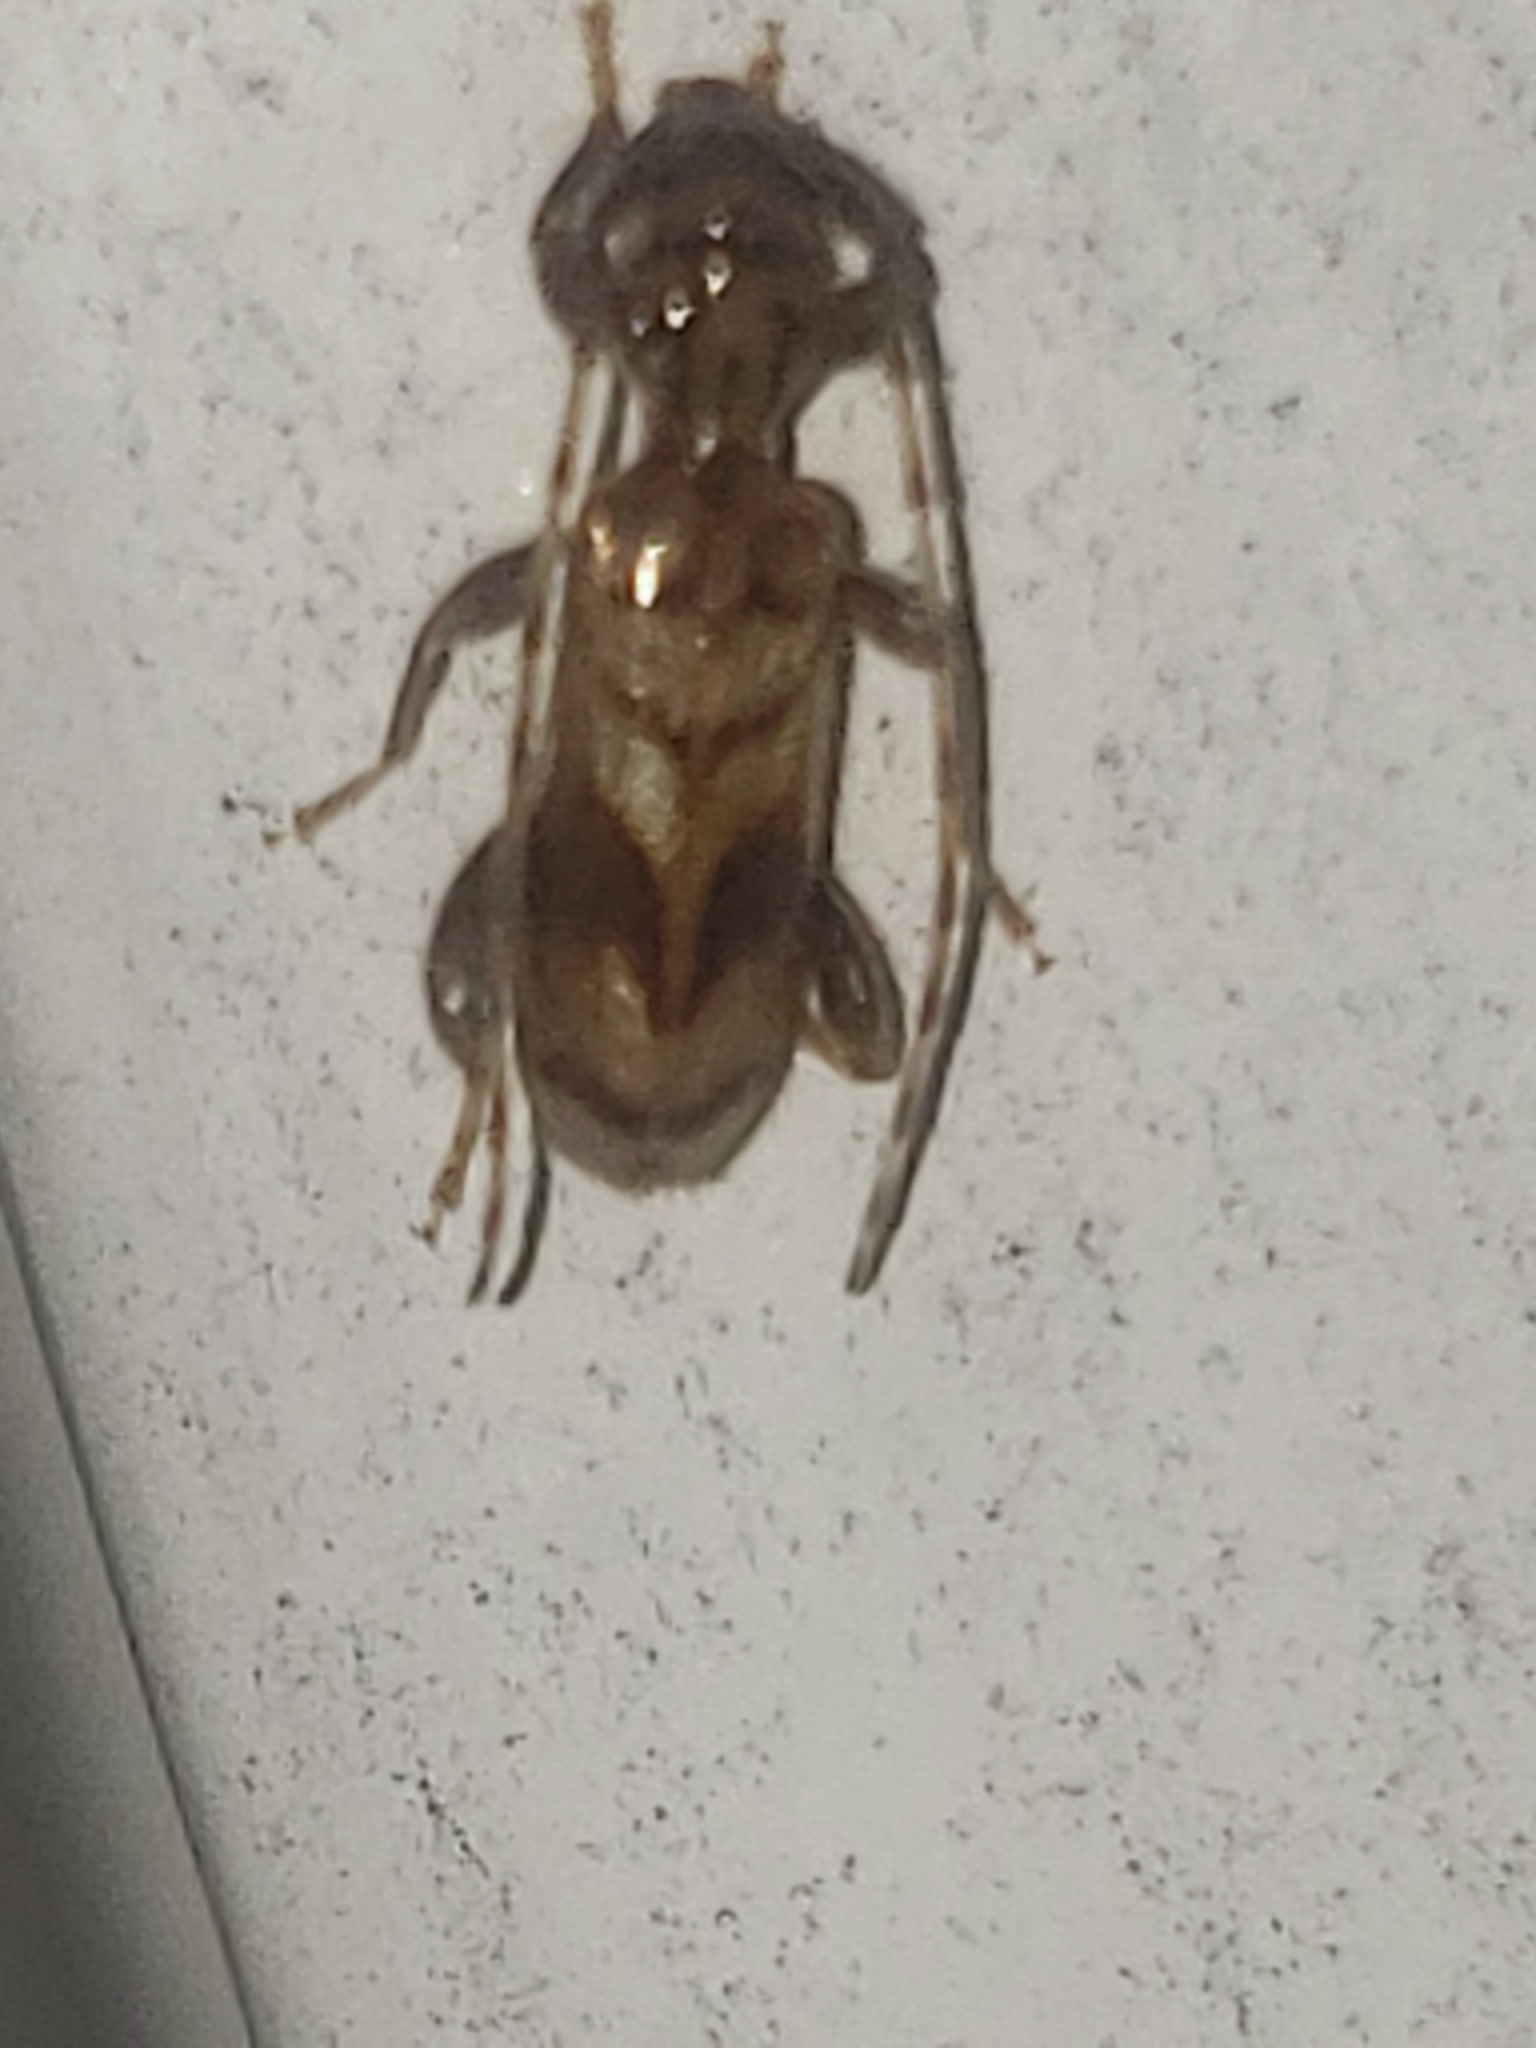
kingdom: Animalia
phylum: Arthropoda
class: Insecta
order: Coleoptera
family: Cerambycidae
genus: Obrium
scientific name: Obrium maculatum
